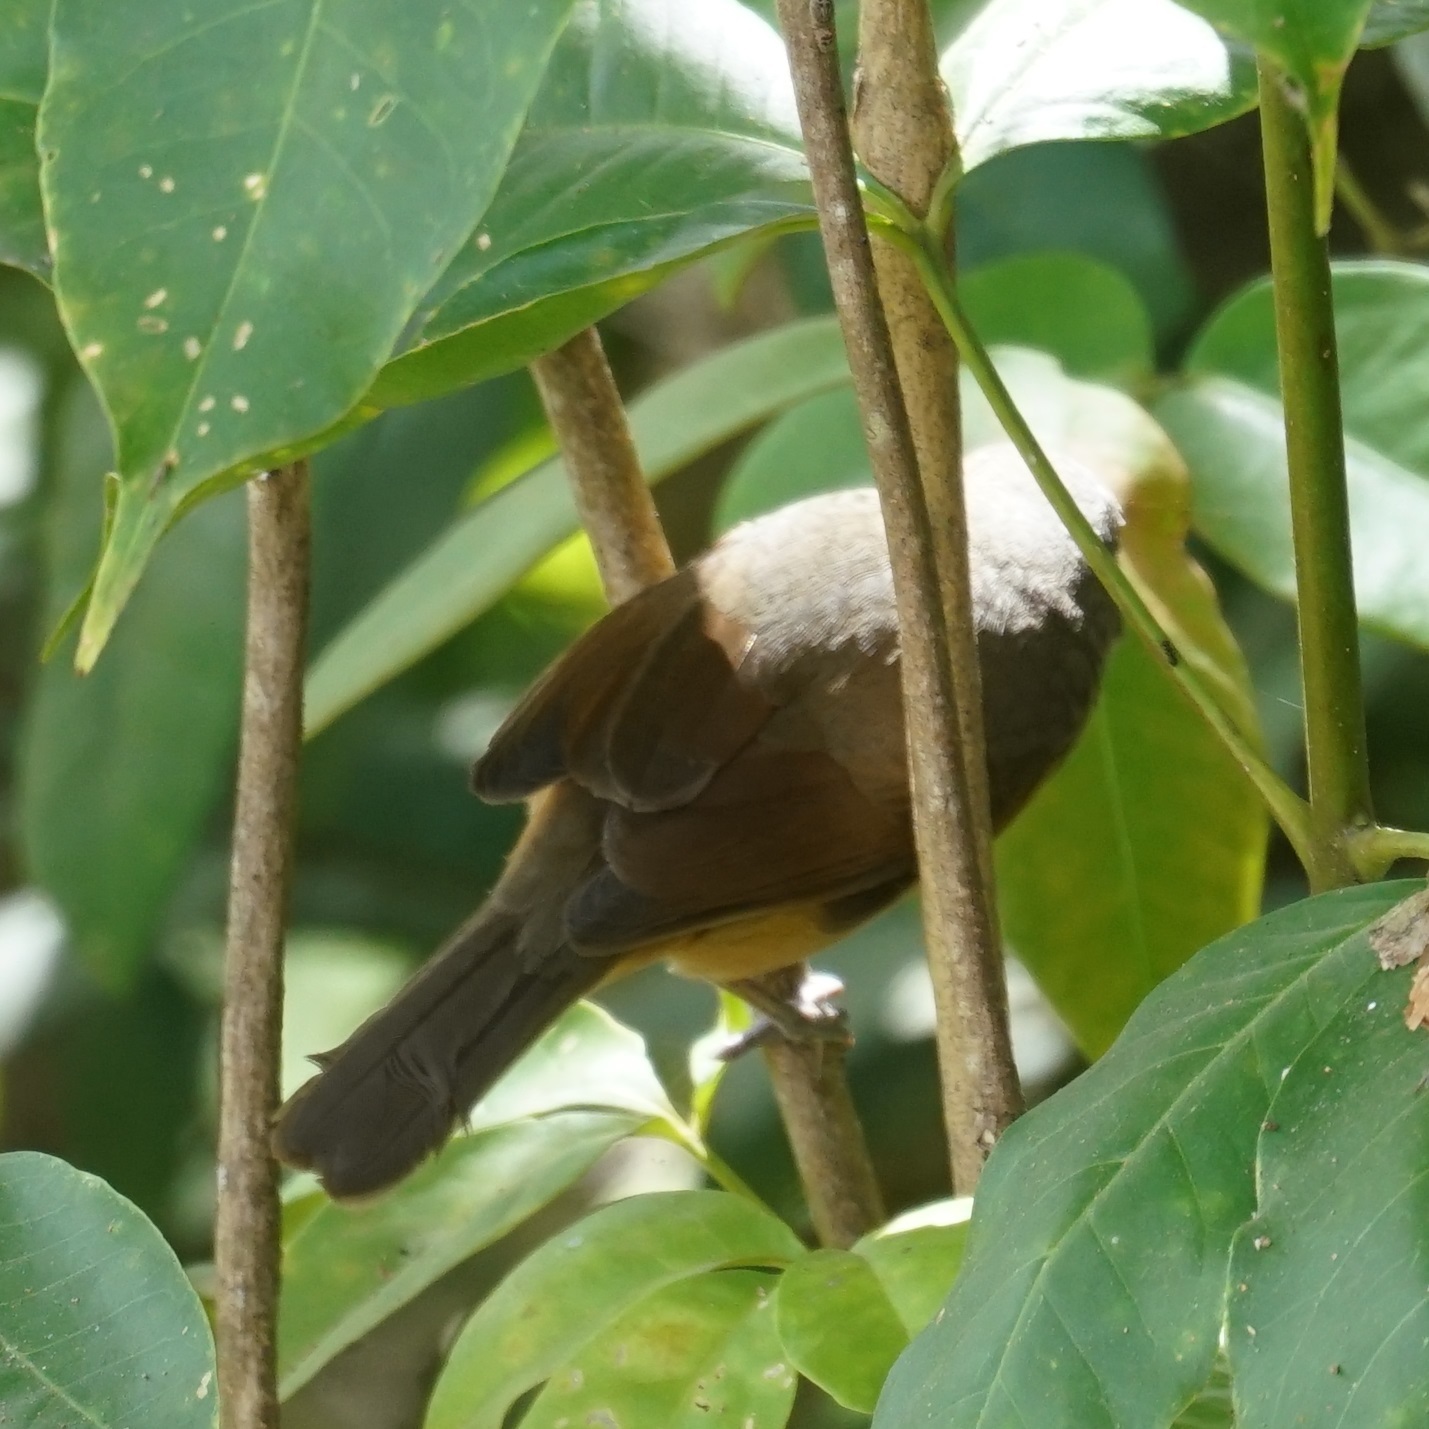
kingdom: Animalia
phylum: Chordata
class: Aves
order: Passeriformes
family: Pachycephalidae
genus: Colluricincla
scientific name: Colluricincla rufogaster
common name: Rufous shrikethrush
